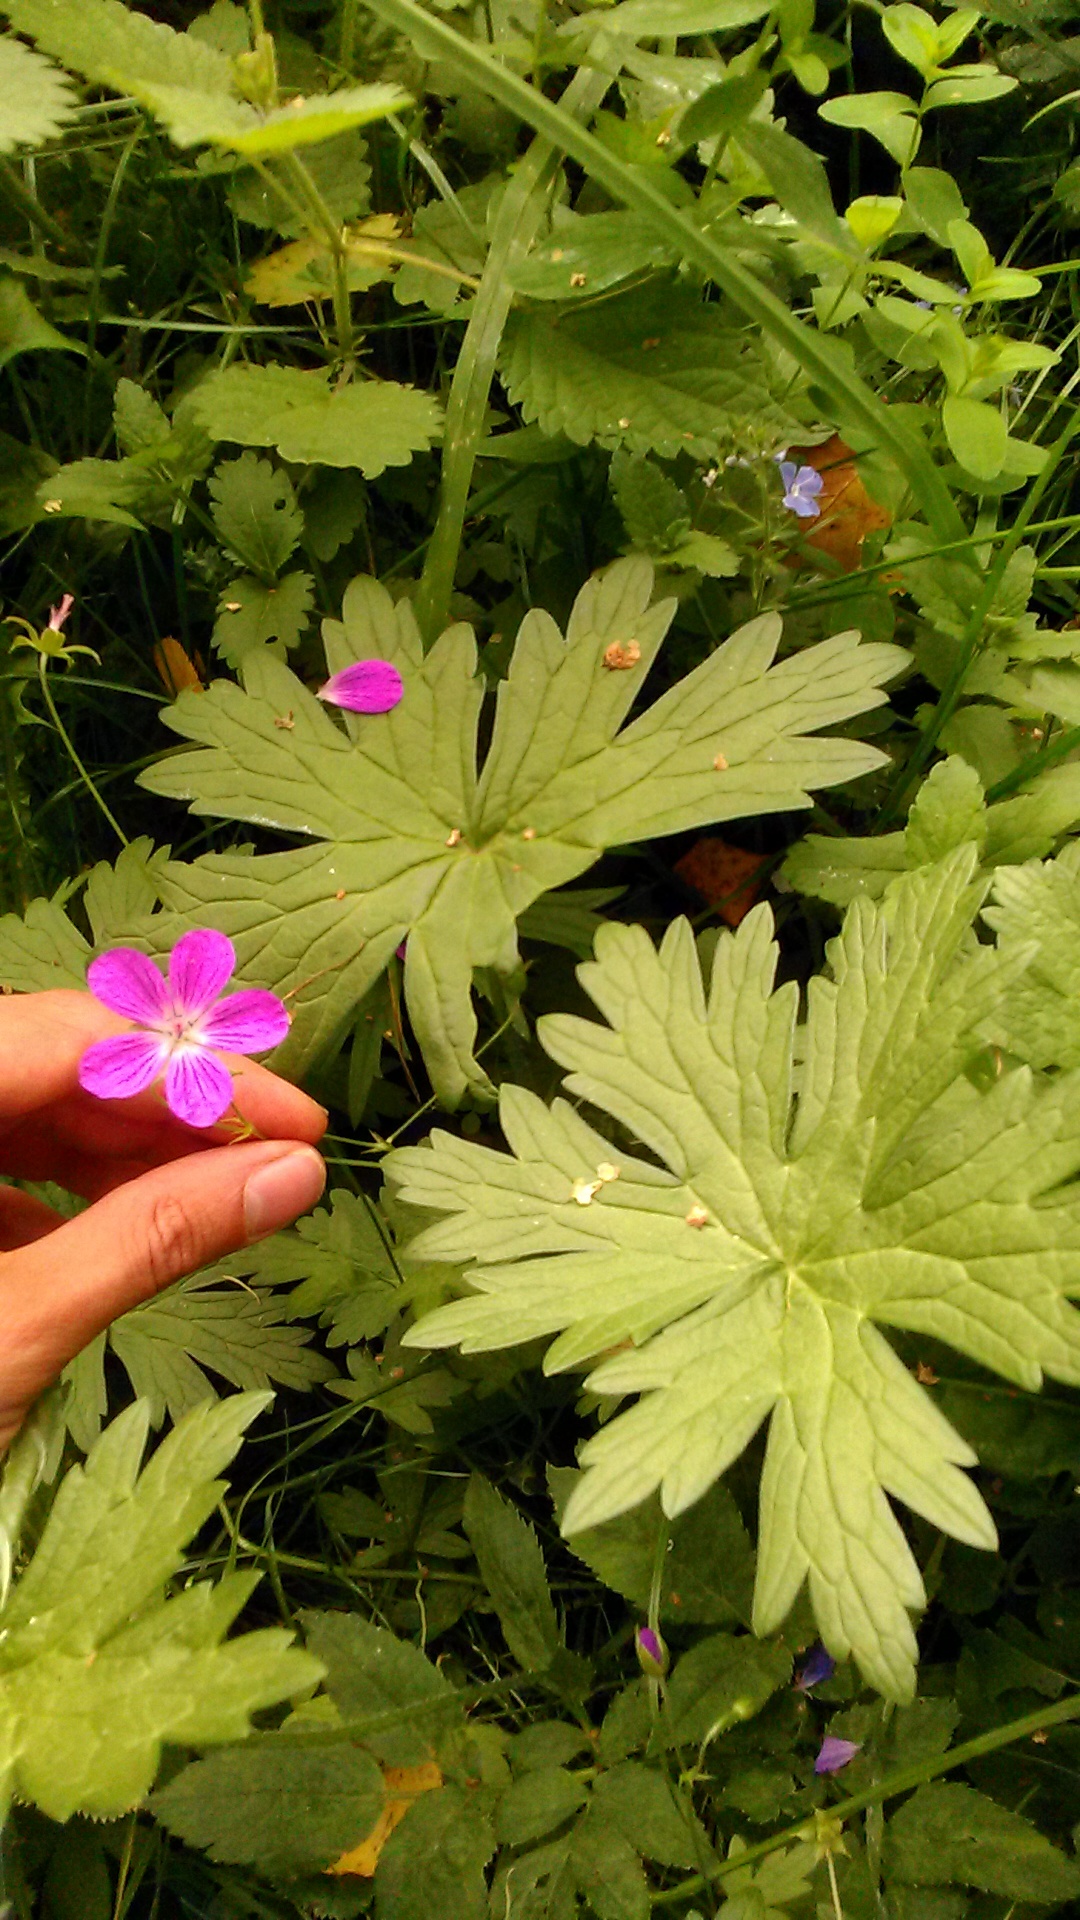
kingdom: Plantae
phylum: Tracheophyta
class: Magnoliopsida
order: Geraniales
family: Geraniaceae
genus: Geranium
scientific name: Geranium palustre
